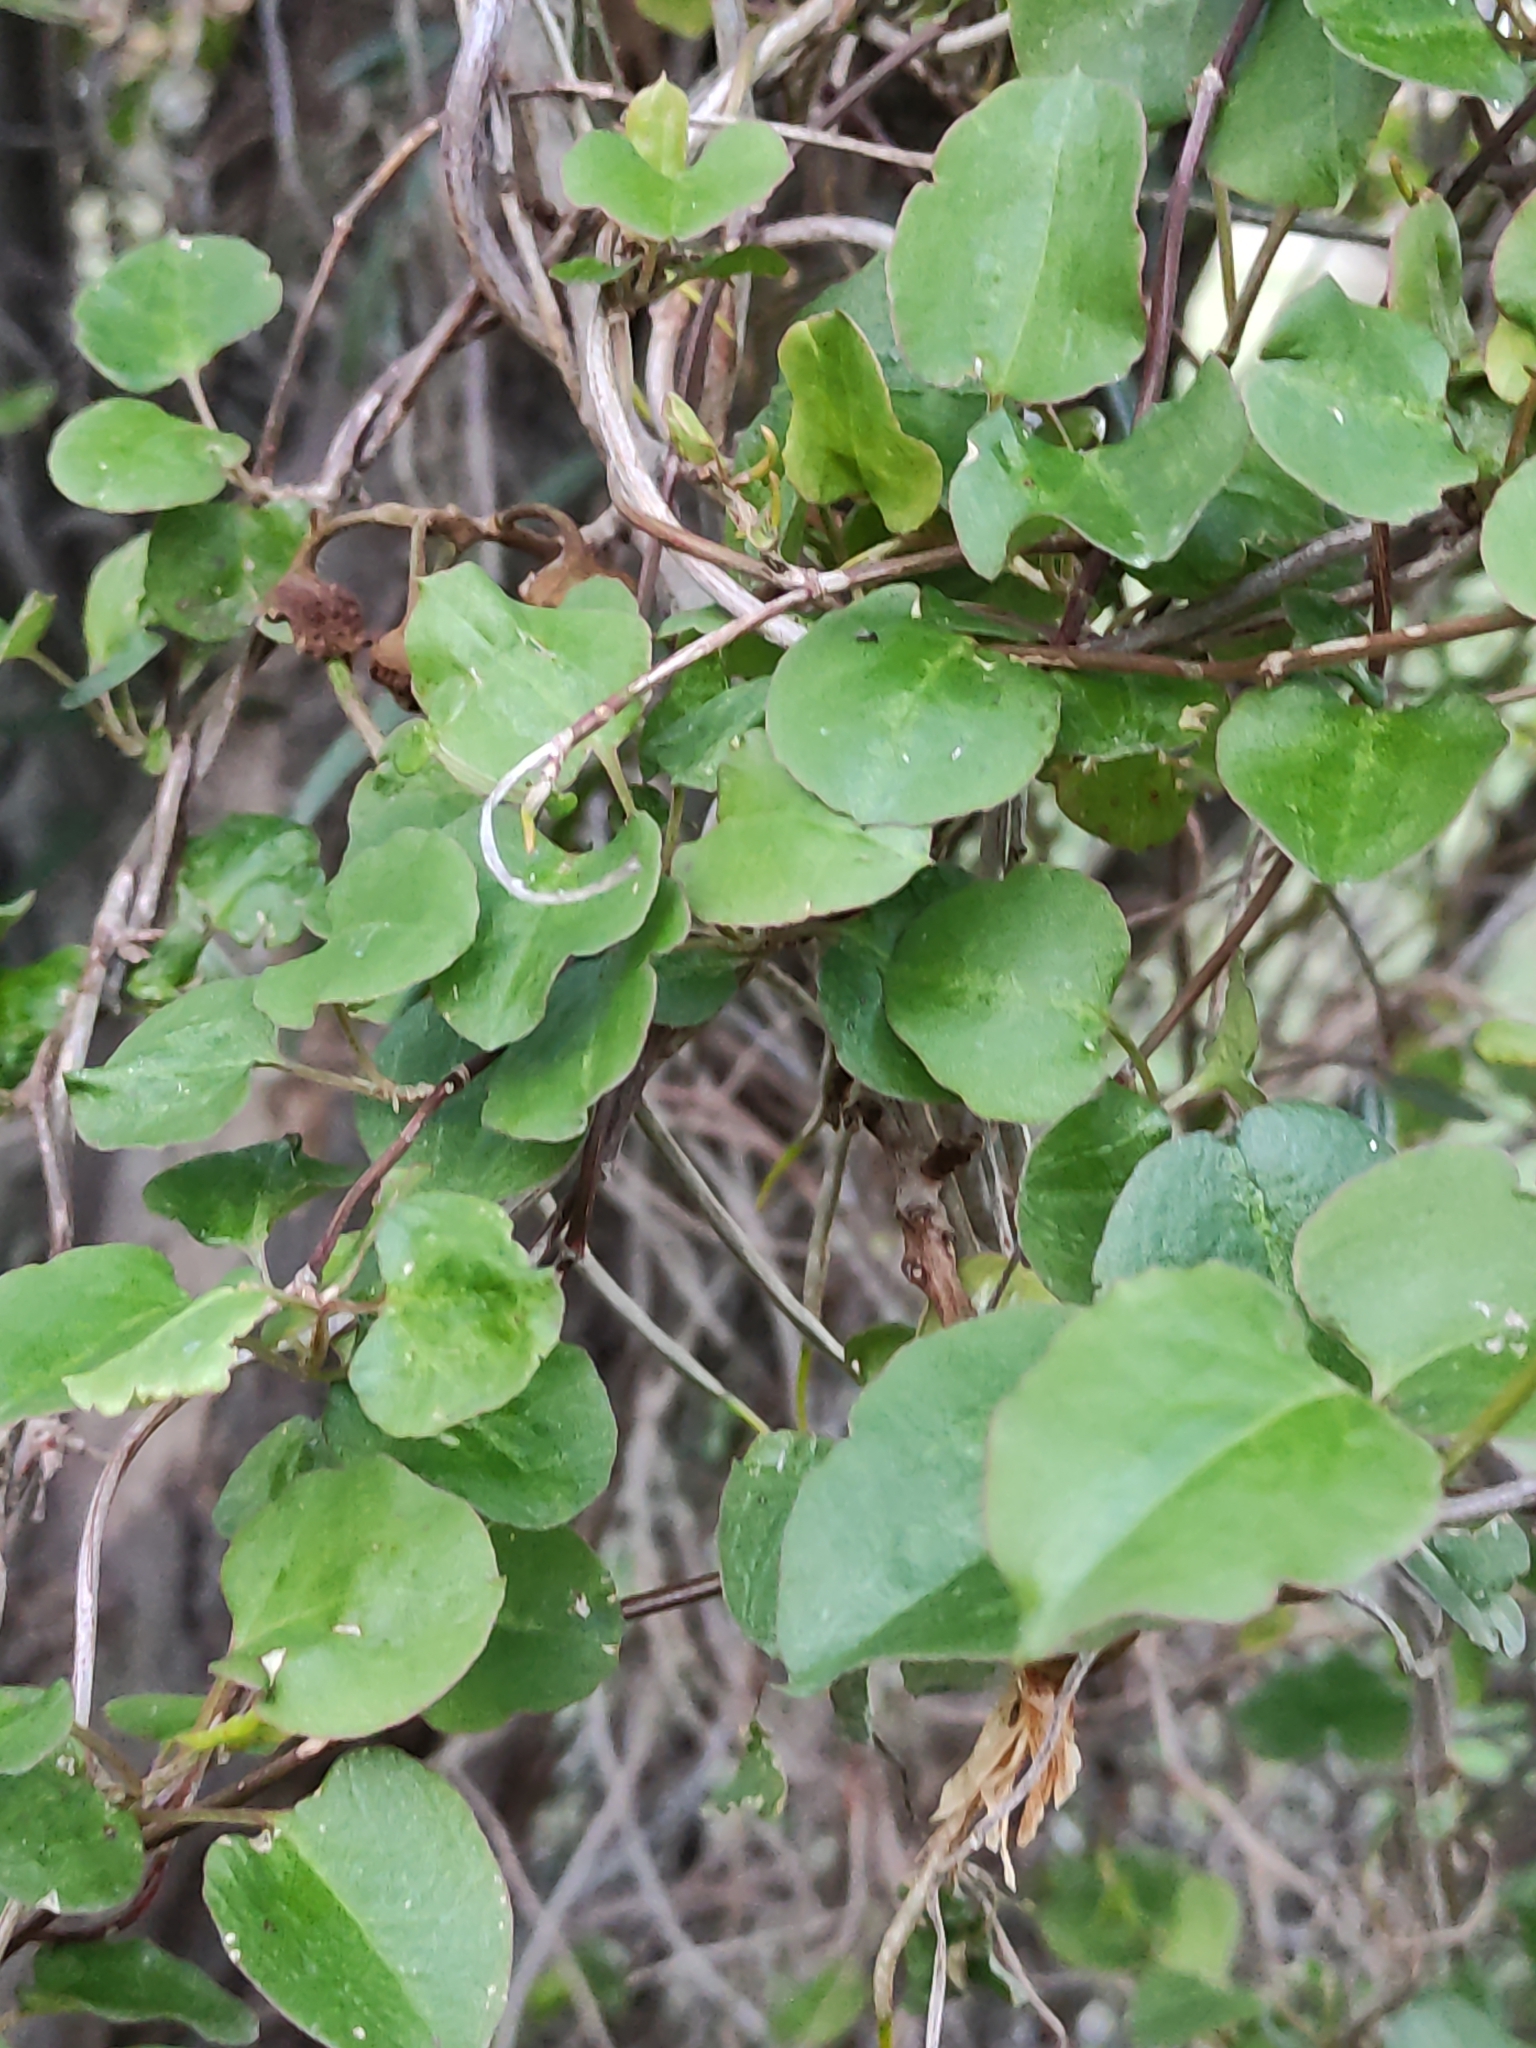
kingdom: Plantae
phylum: Tracheophyta
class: Magnoliopsida
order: Caryophyllales
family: Polygonaceae
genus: Muehlenbeckia
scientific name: Muehlenbeckia australis
